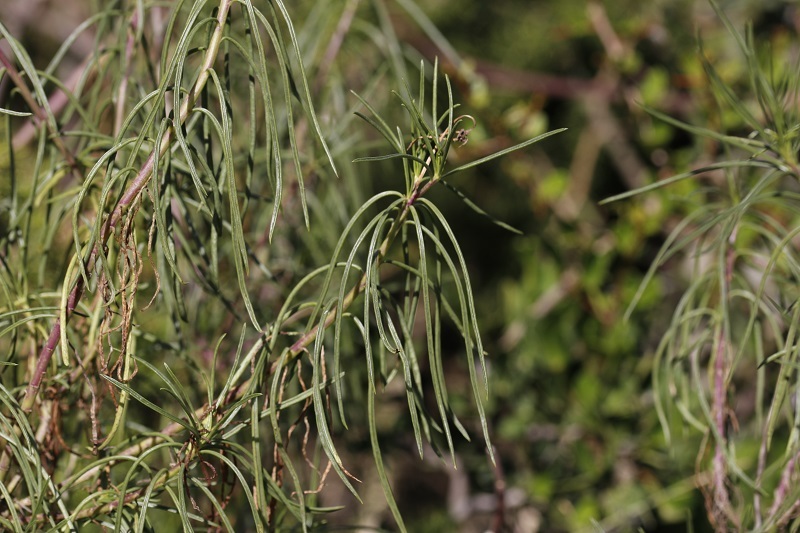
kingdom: Plantae
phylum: Tracheophyta
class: Magnoliopsida
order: Asterales
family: Asteraceae
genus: Senecio
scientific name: Senecio linifolius
